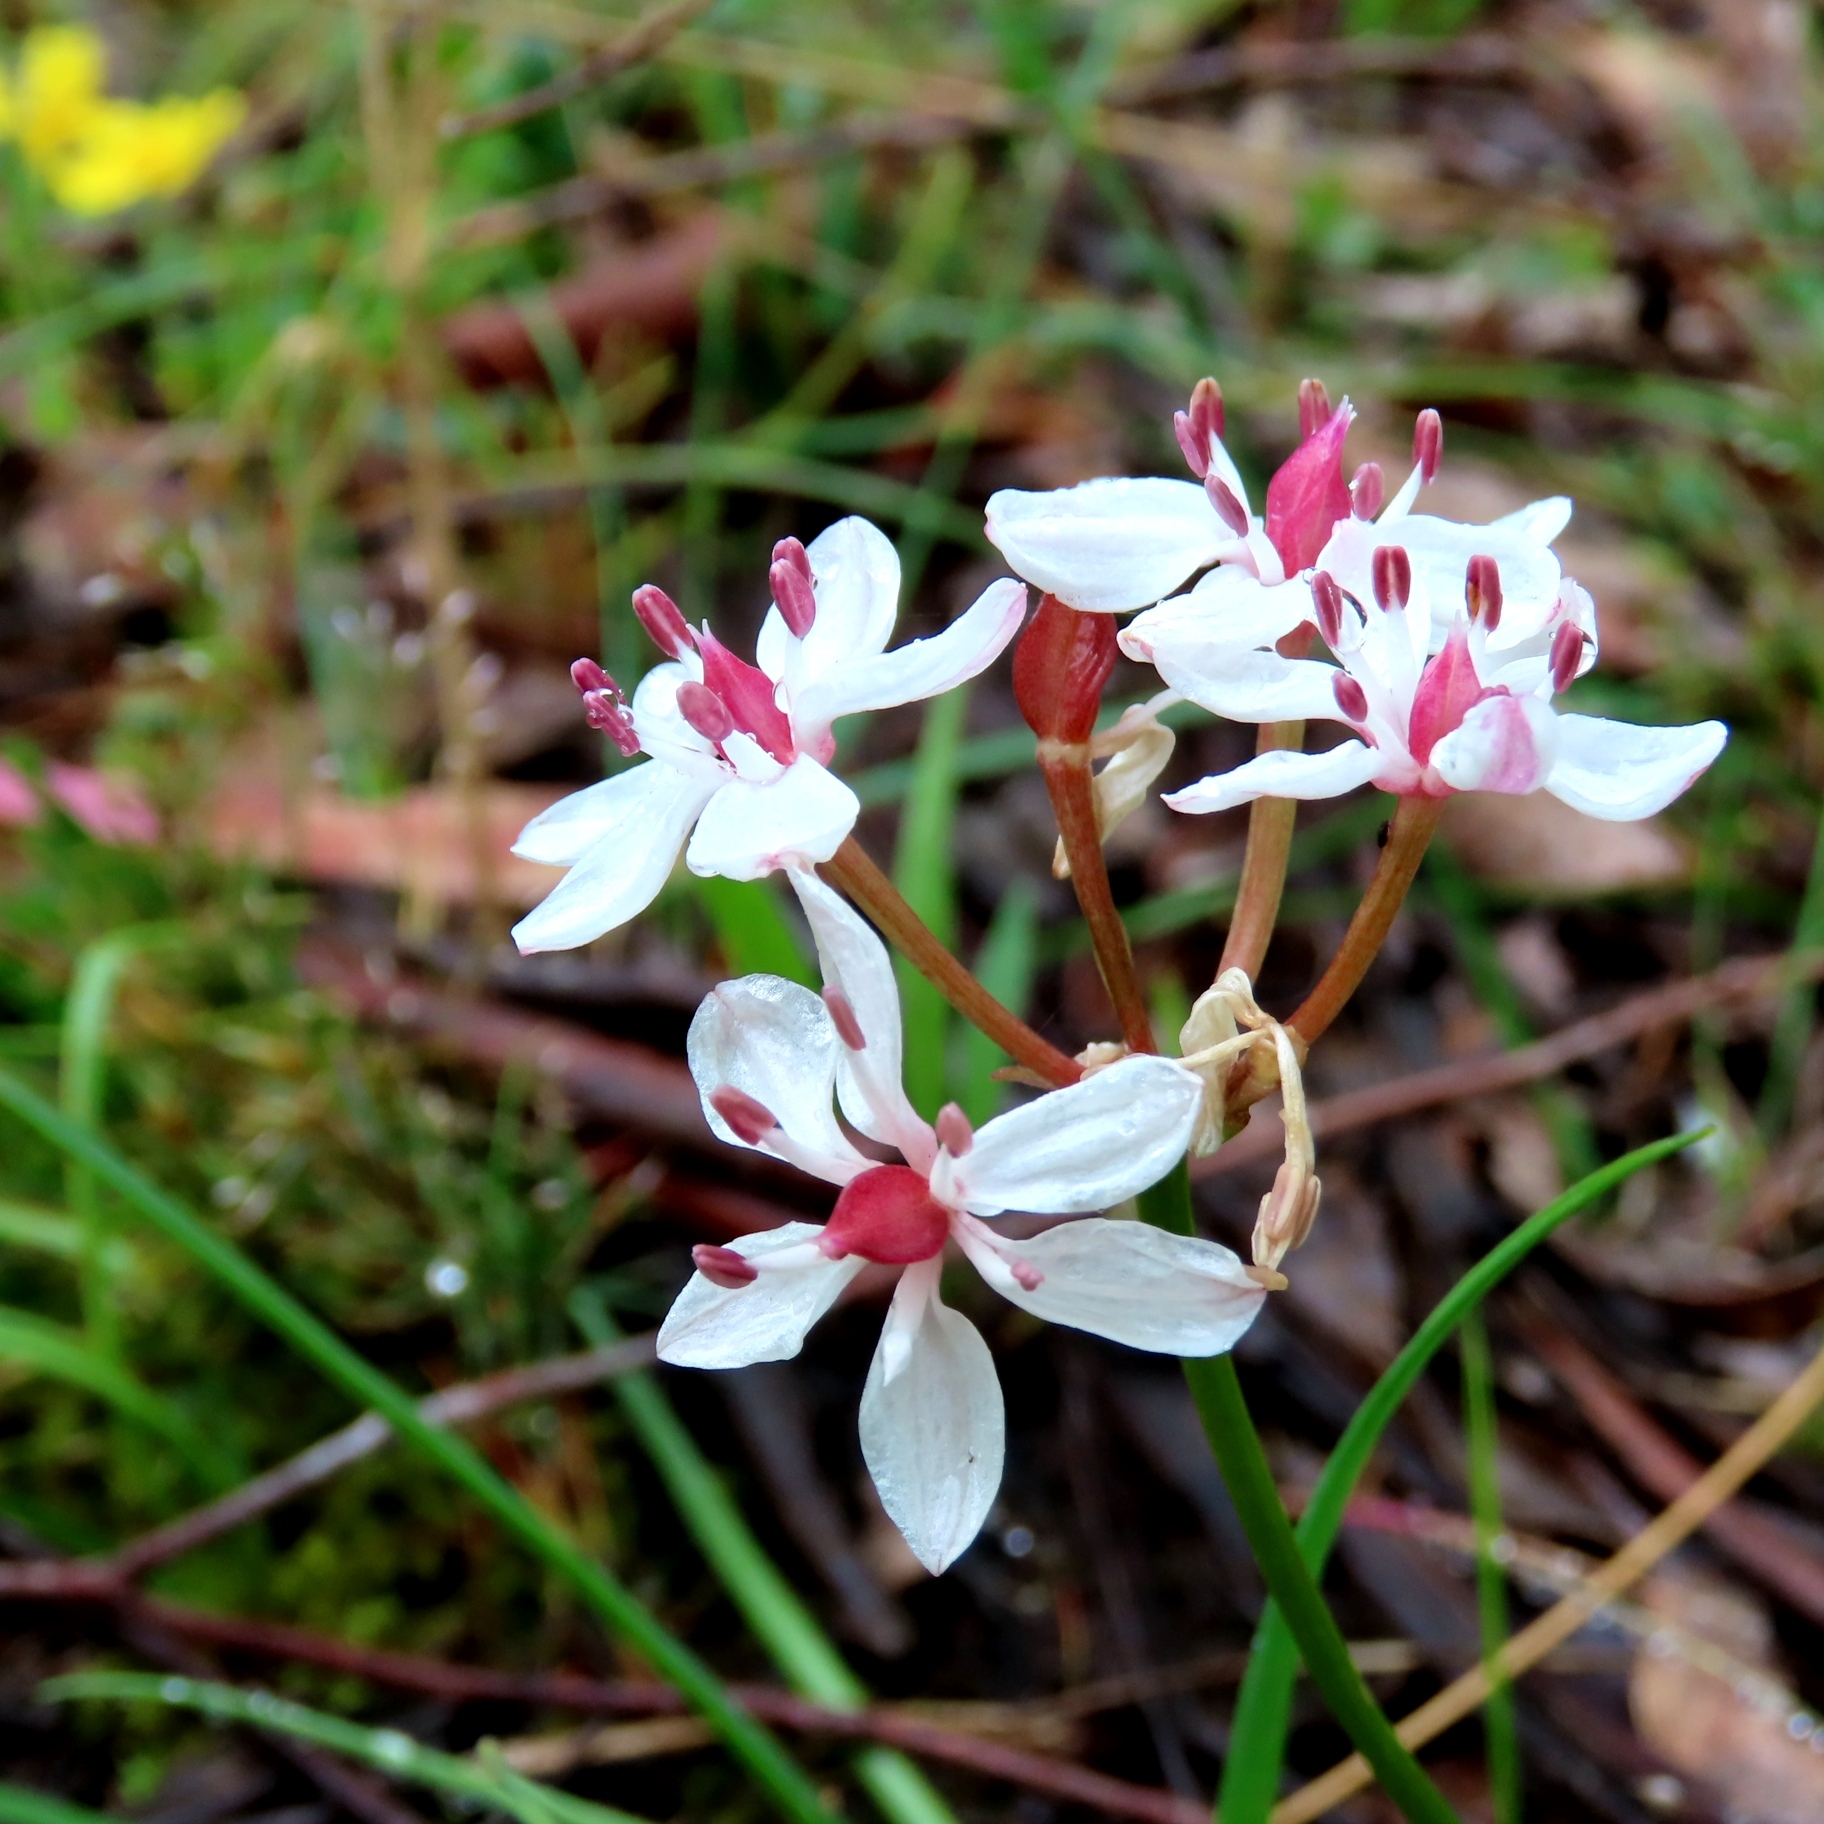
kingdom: Plantae
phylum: Tracheophyta
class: Liliopsida
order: Liliales
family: Colchicaceae
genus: Burchardia
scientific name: Burchardia umbellata
